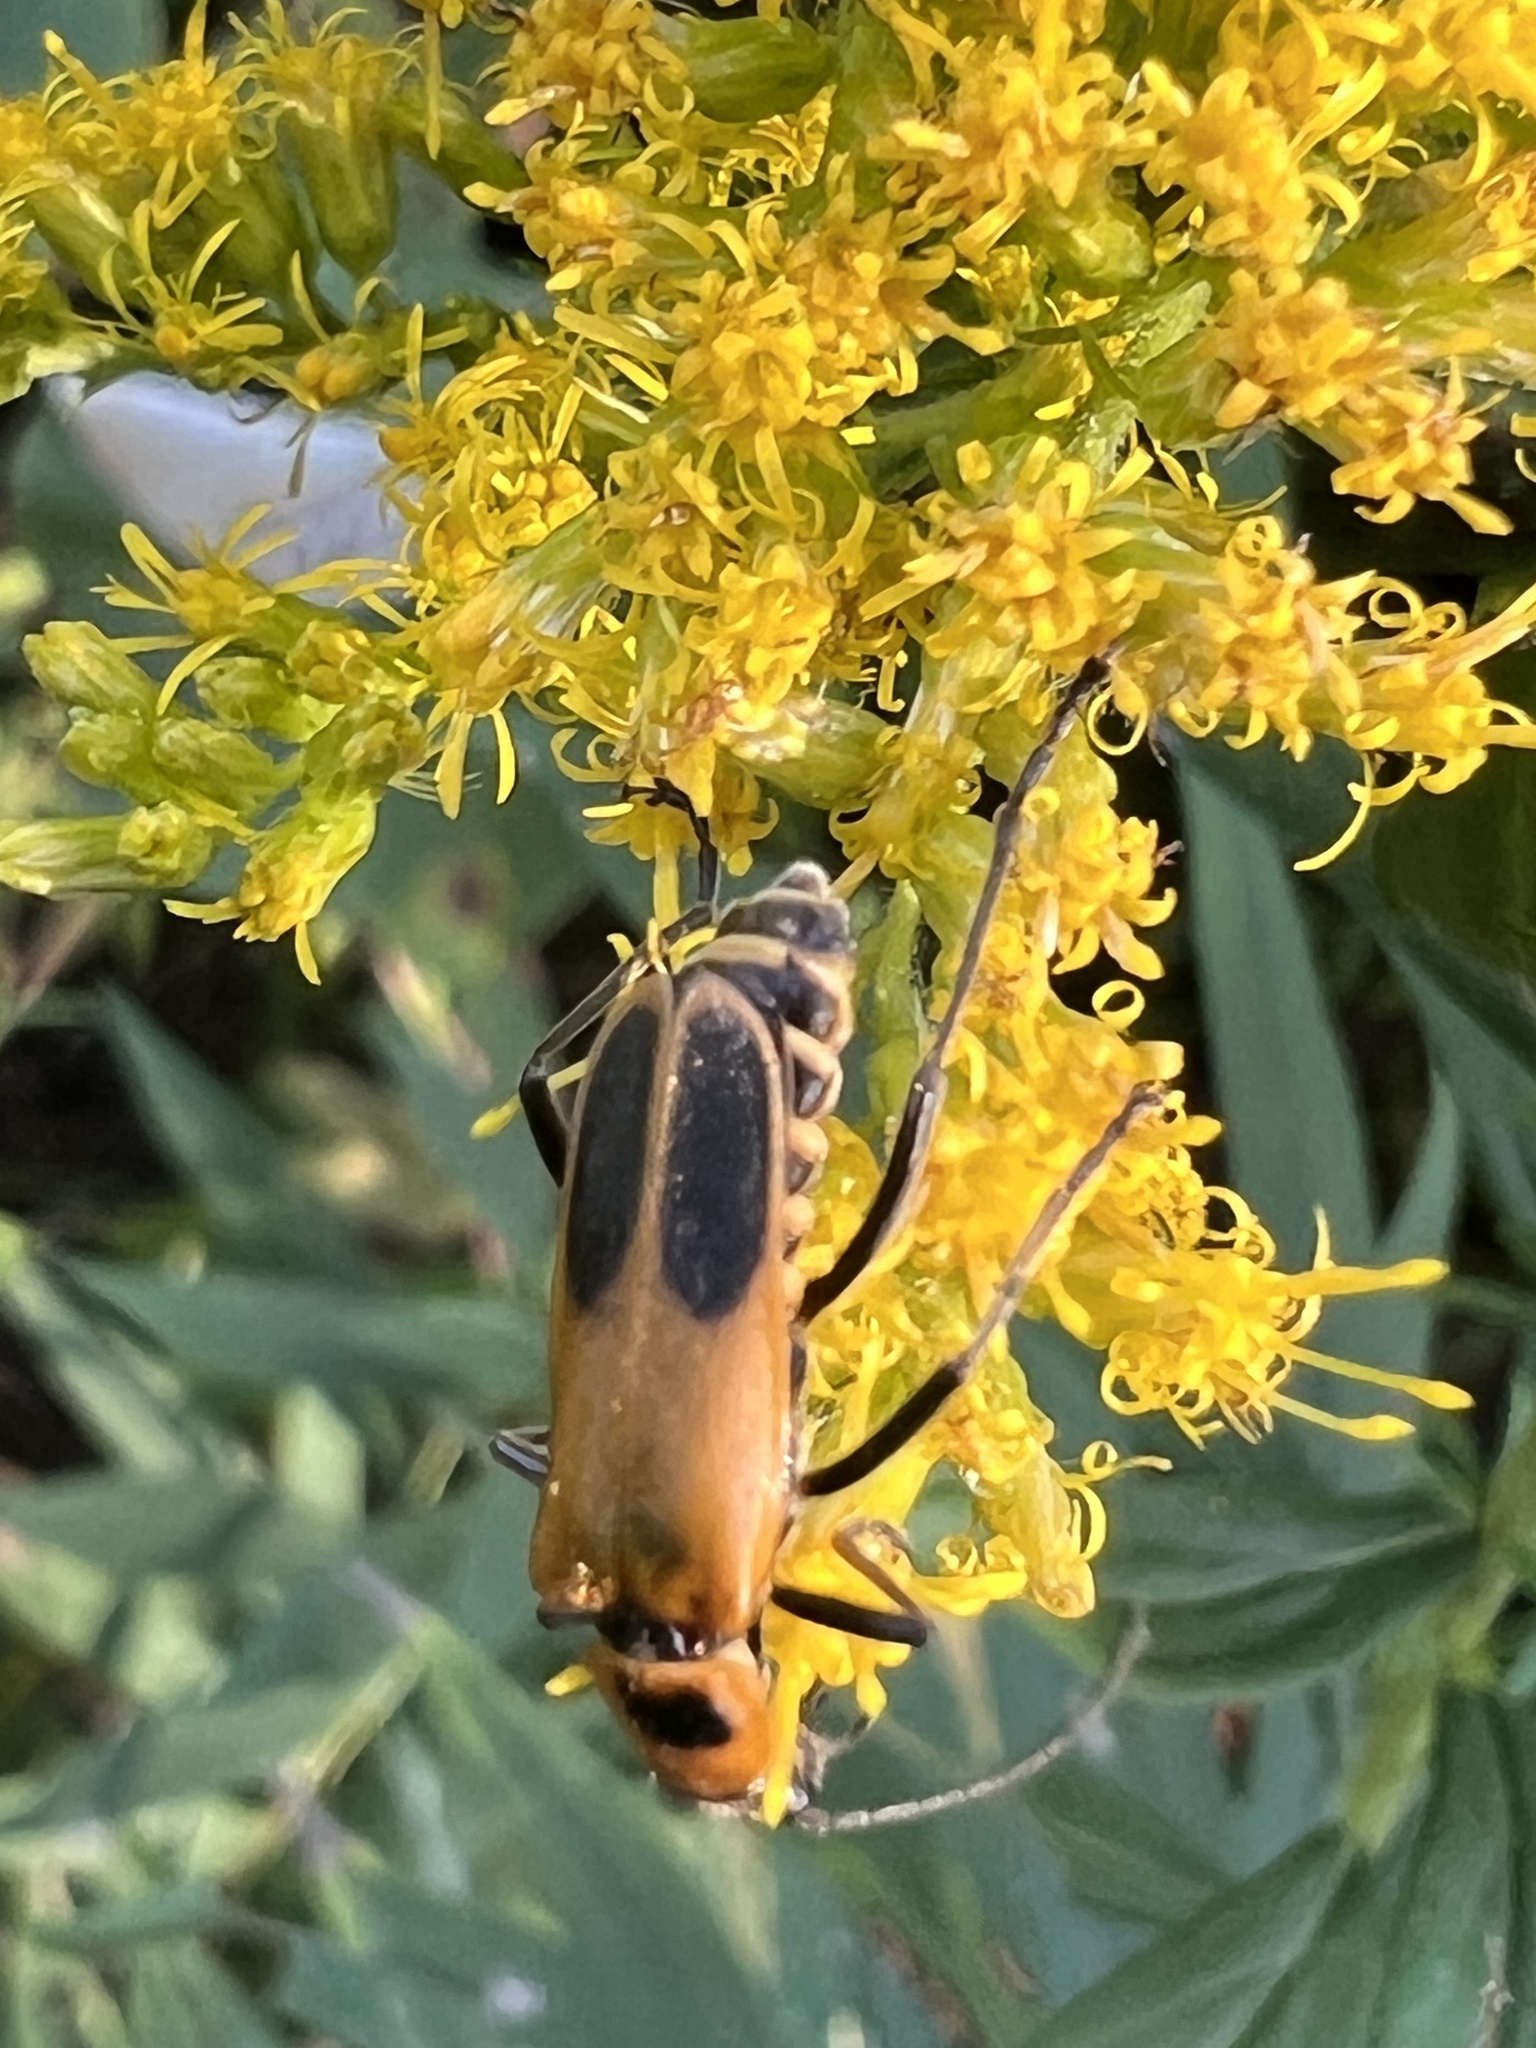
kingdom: Animalia
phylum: Arthropoda
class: Insecta
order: Coleoptera
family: Cantharidae
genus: Chauliognathus
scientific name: Chauliognathus pensylvanicus
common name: Goldenrod soldier beetle
